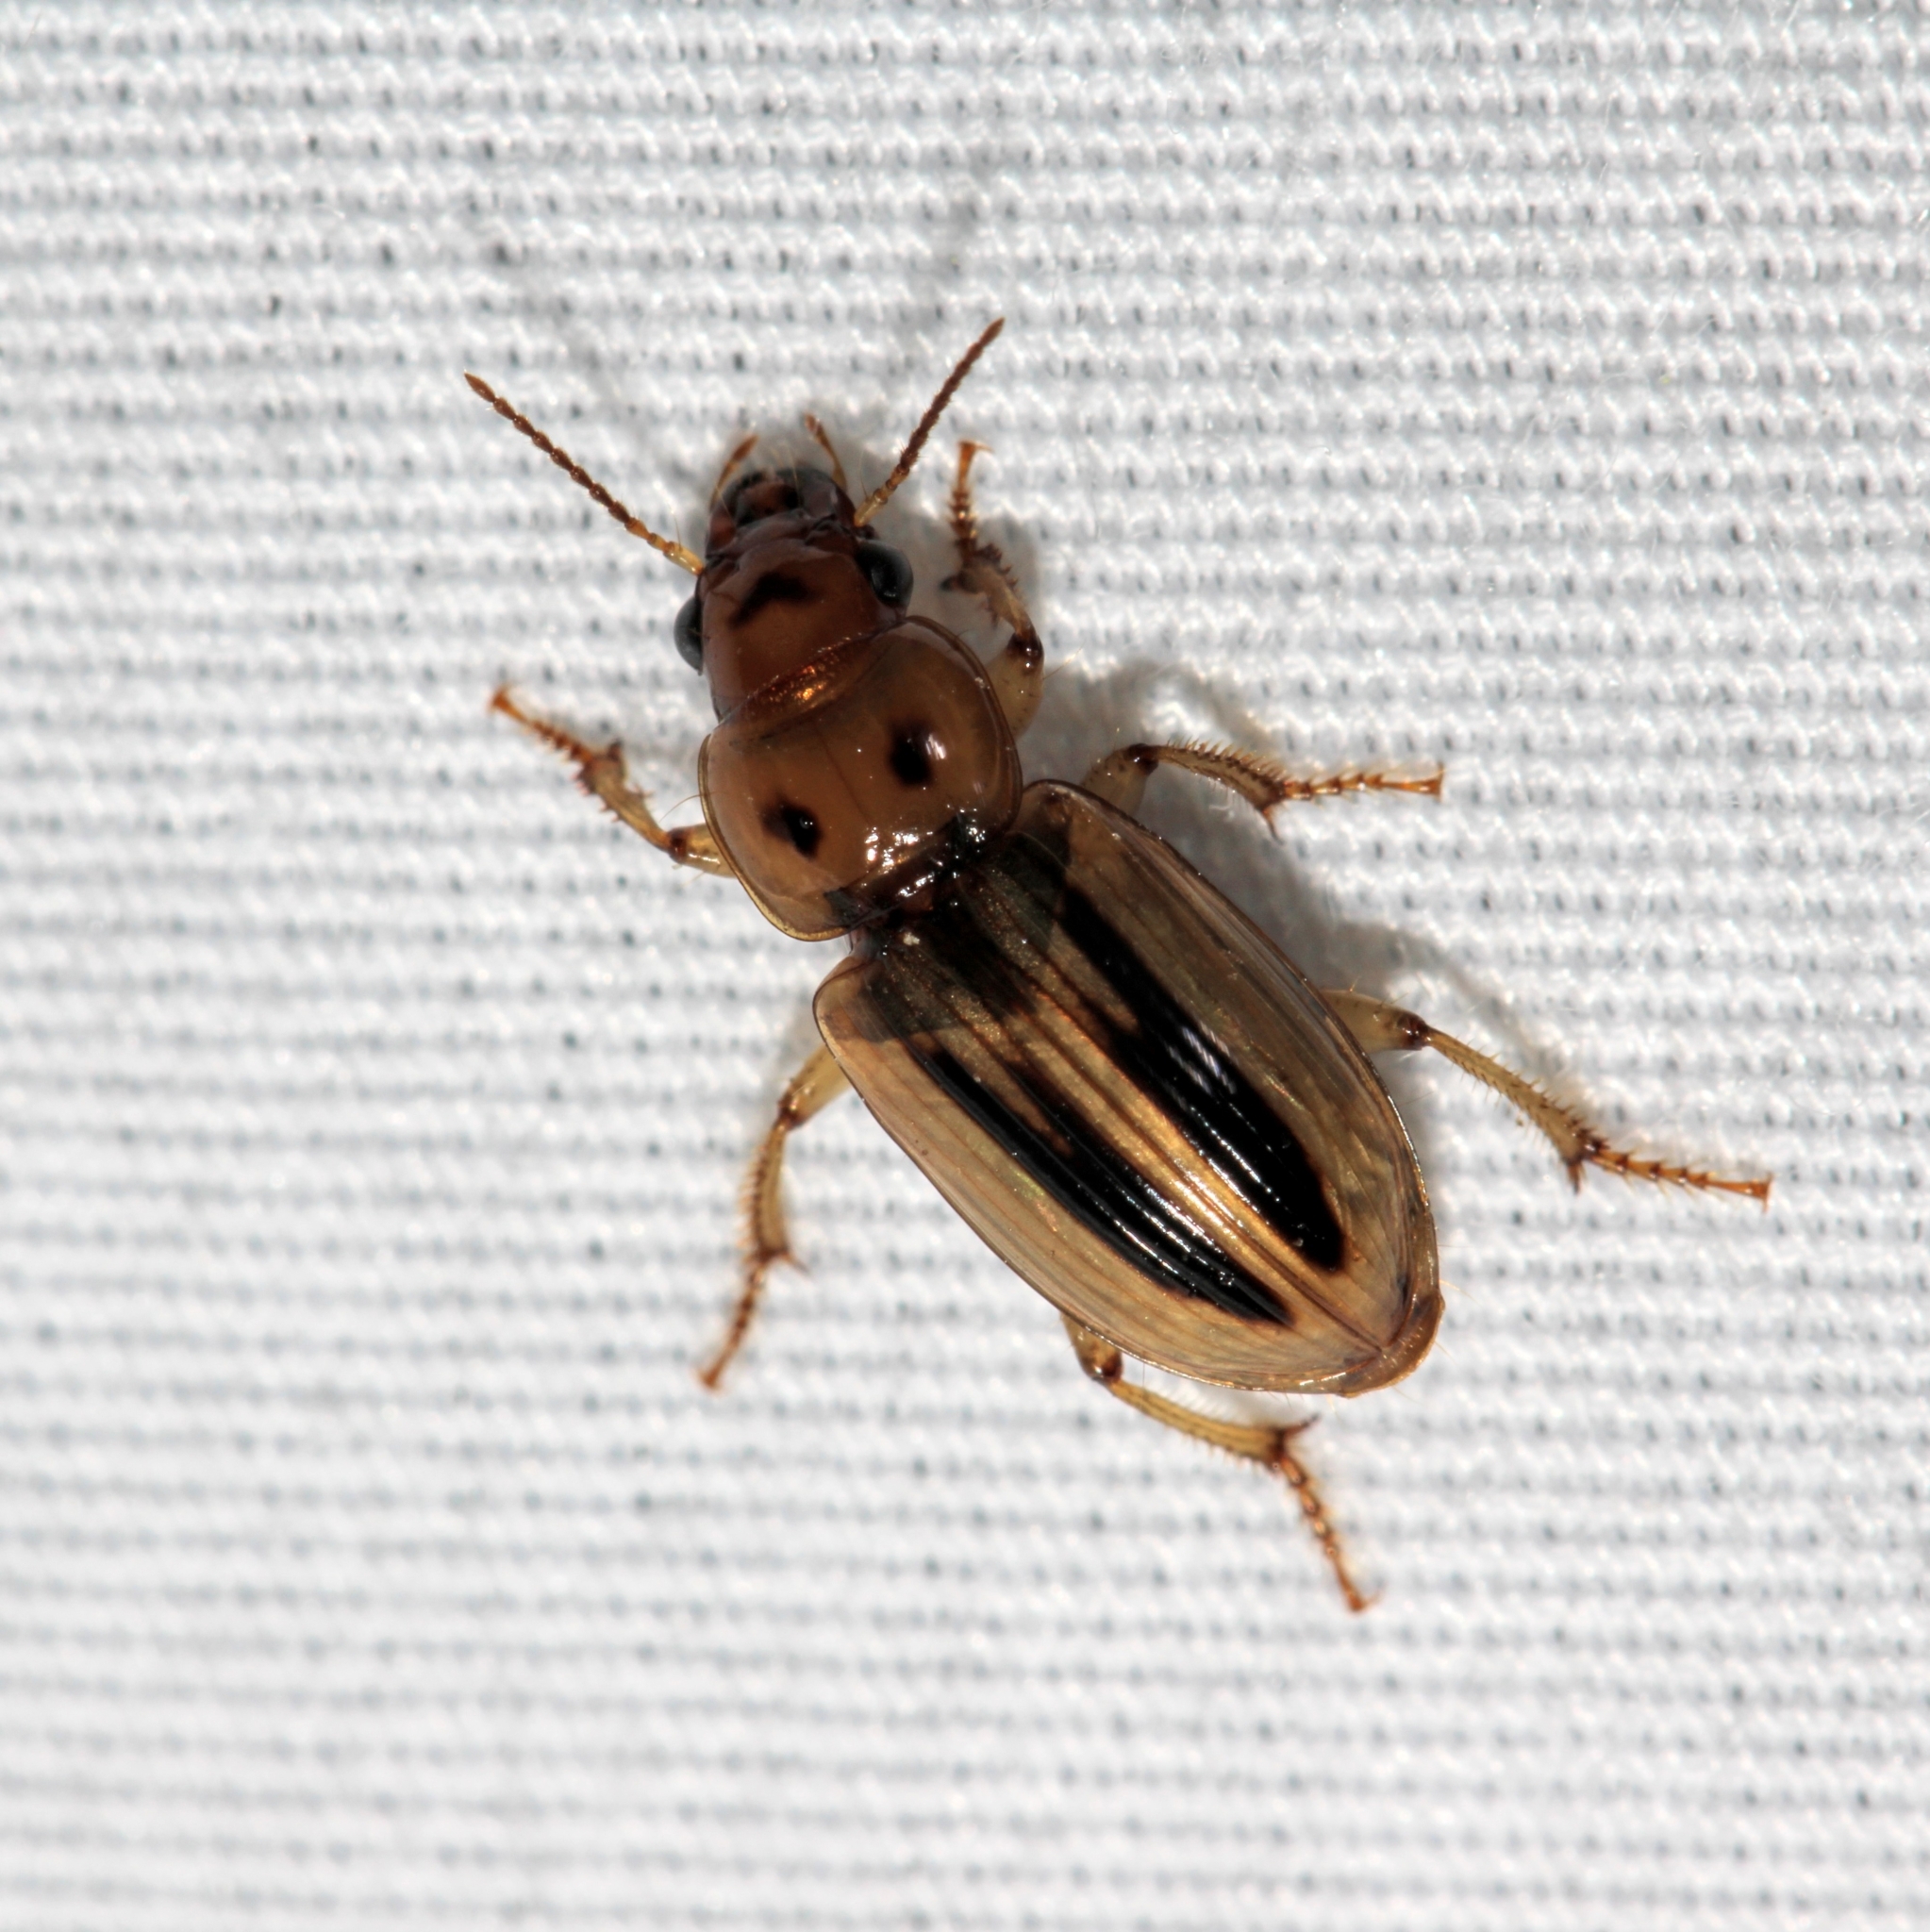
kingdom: Animalia
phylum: Arthropoda
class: Insecta
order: Coleoptera
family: Carabidae
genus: Stenolophus
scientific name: Stenolophus lineola
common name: Lined stenolophus
